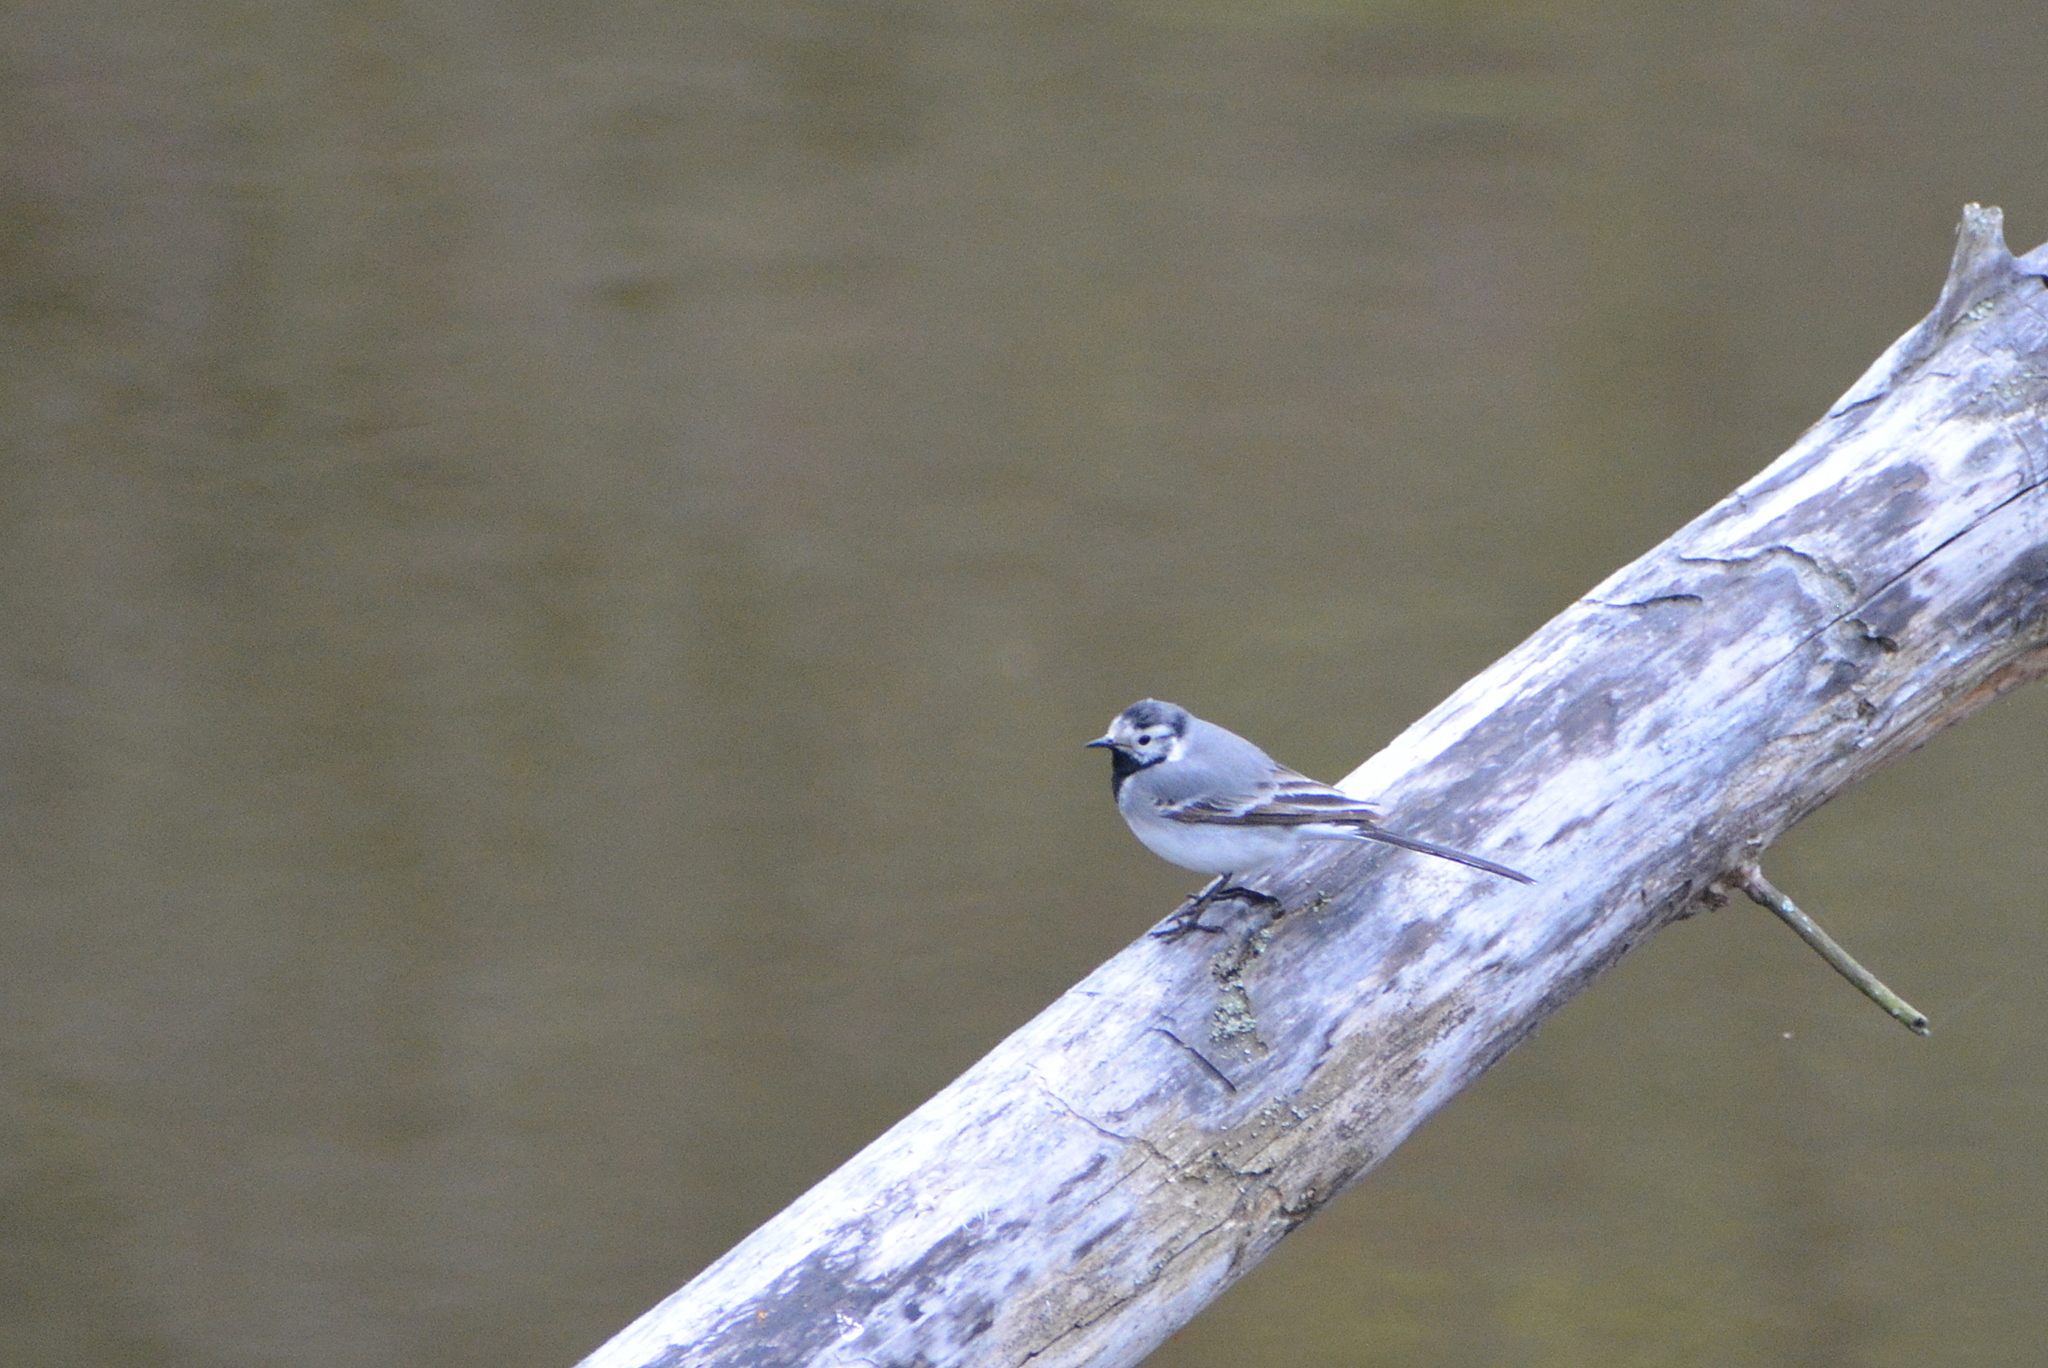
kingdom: Animalia
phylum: Chordata
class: Aves
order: Passeriformes
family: Motacillidae
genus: Motacilla
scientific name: Motacilla alba
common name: White wagtail
